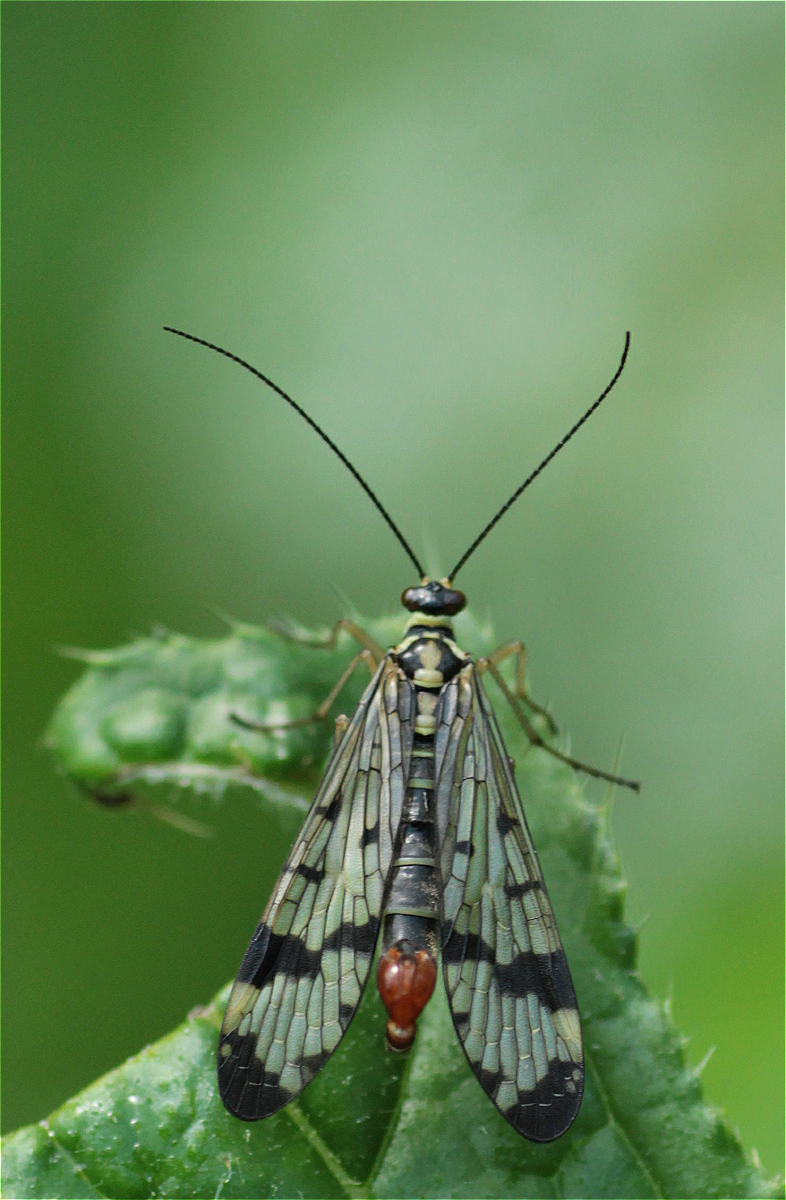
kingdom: Animalia
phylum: Arthropoda
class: Insecta
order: Mecoptera
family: Panorpidae
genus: Panorpa
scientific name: Panorpa communis
